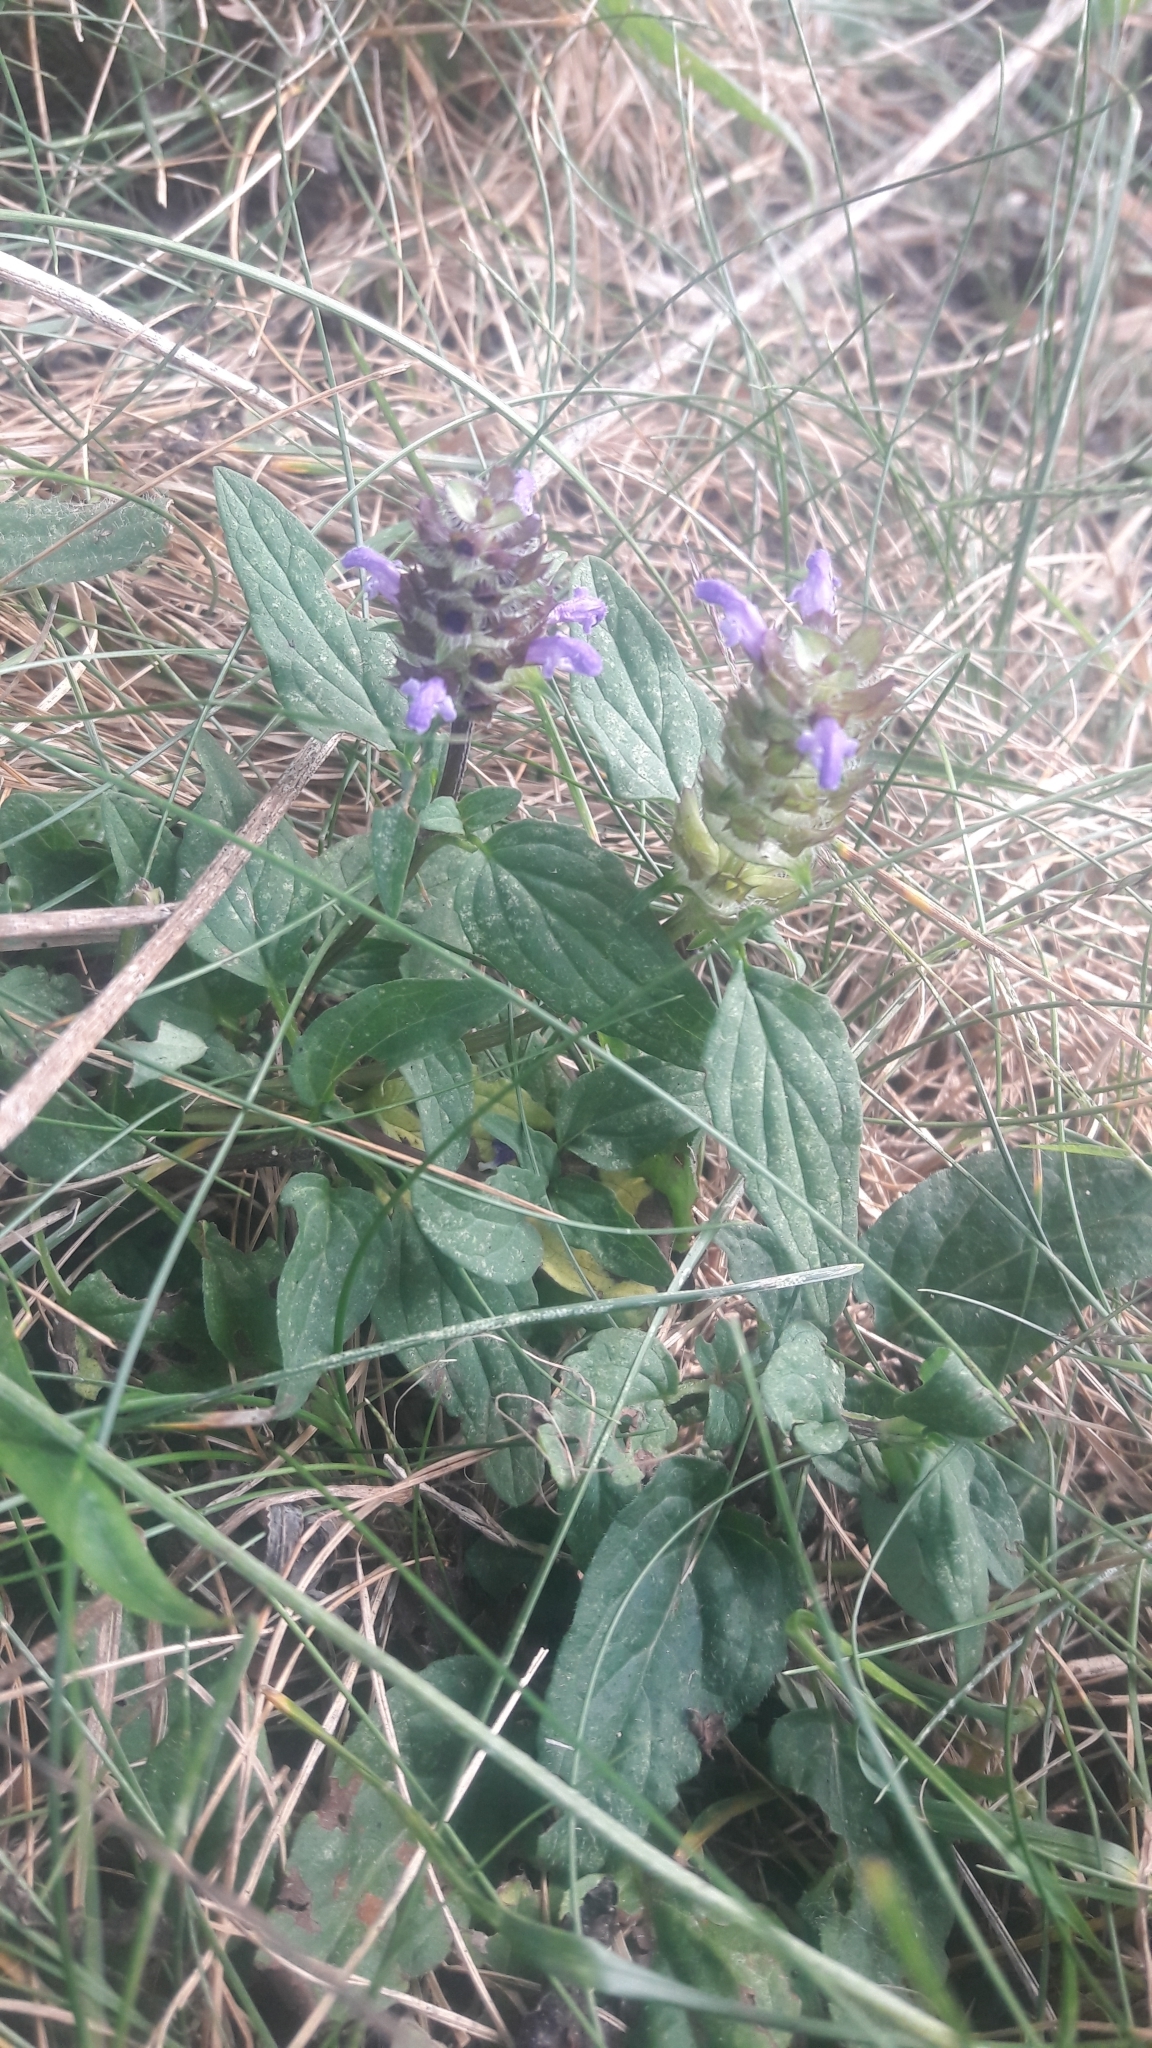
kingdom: Plantae
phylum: Tracheophyta
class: Magnoliopsida
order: Lamiales
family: Lamiaceae
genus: Prunella
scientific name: Prunella vulgaris
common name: Heal-all
